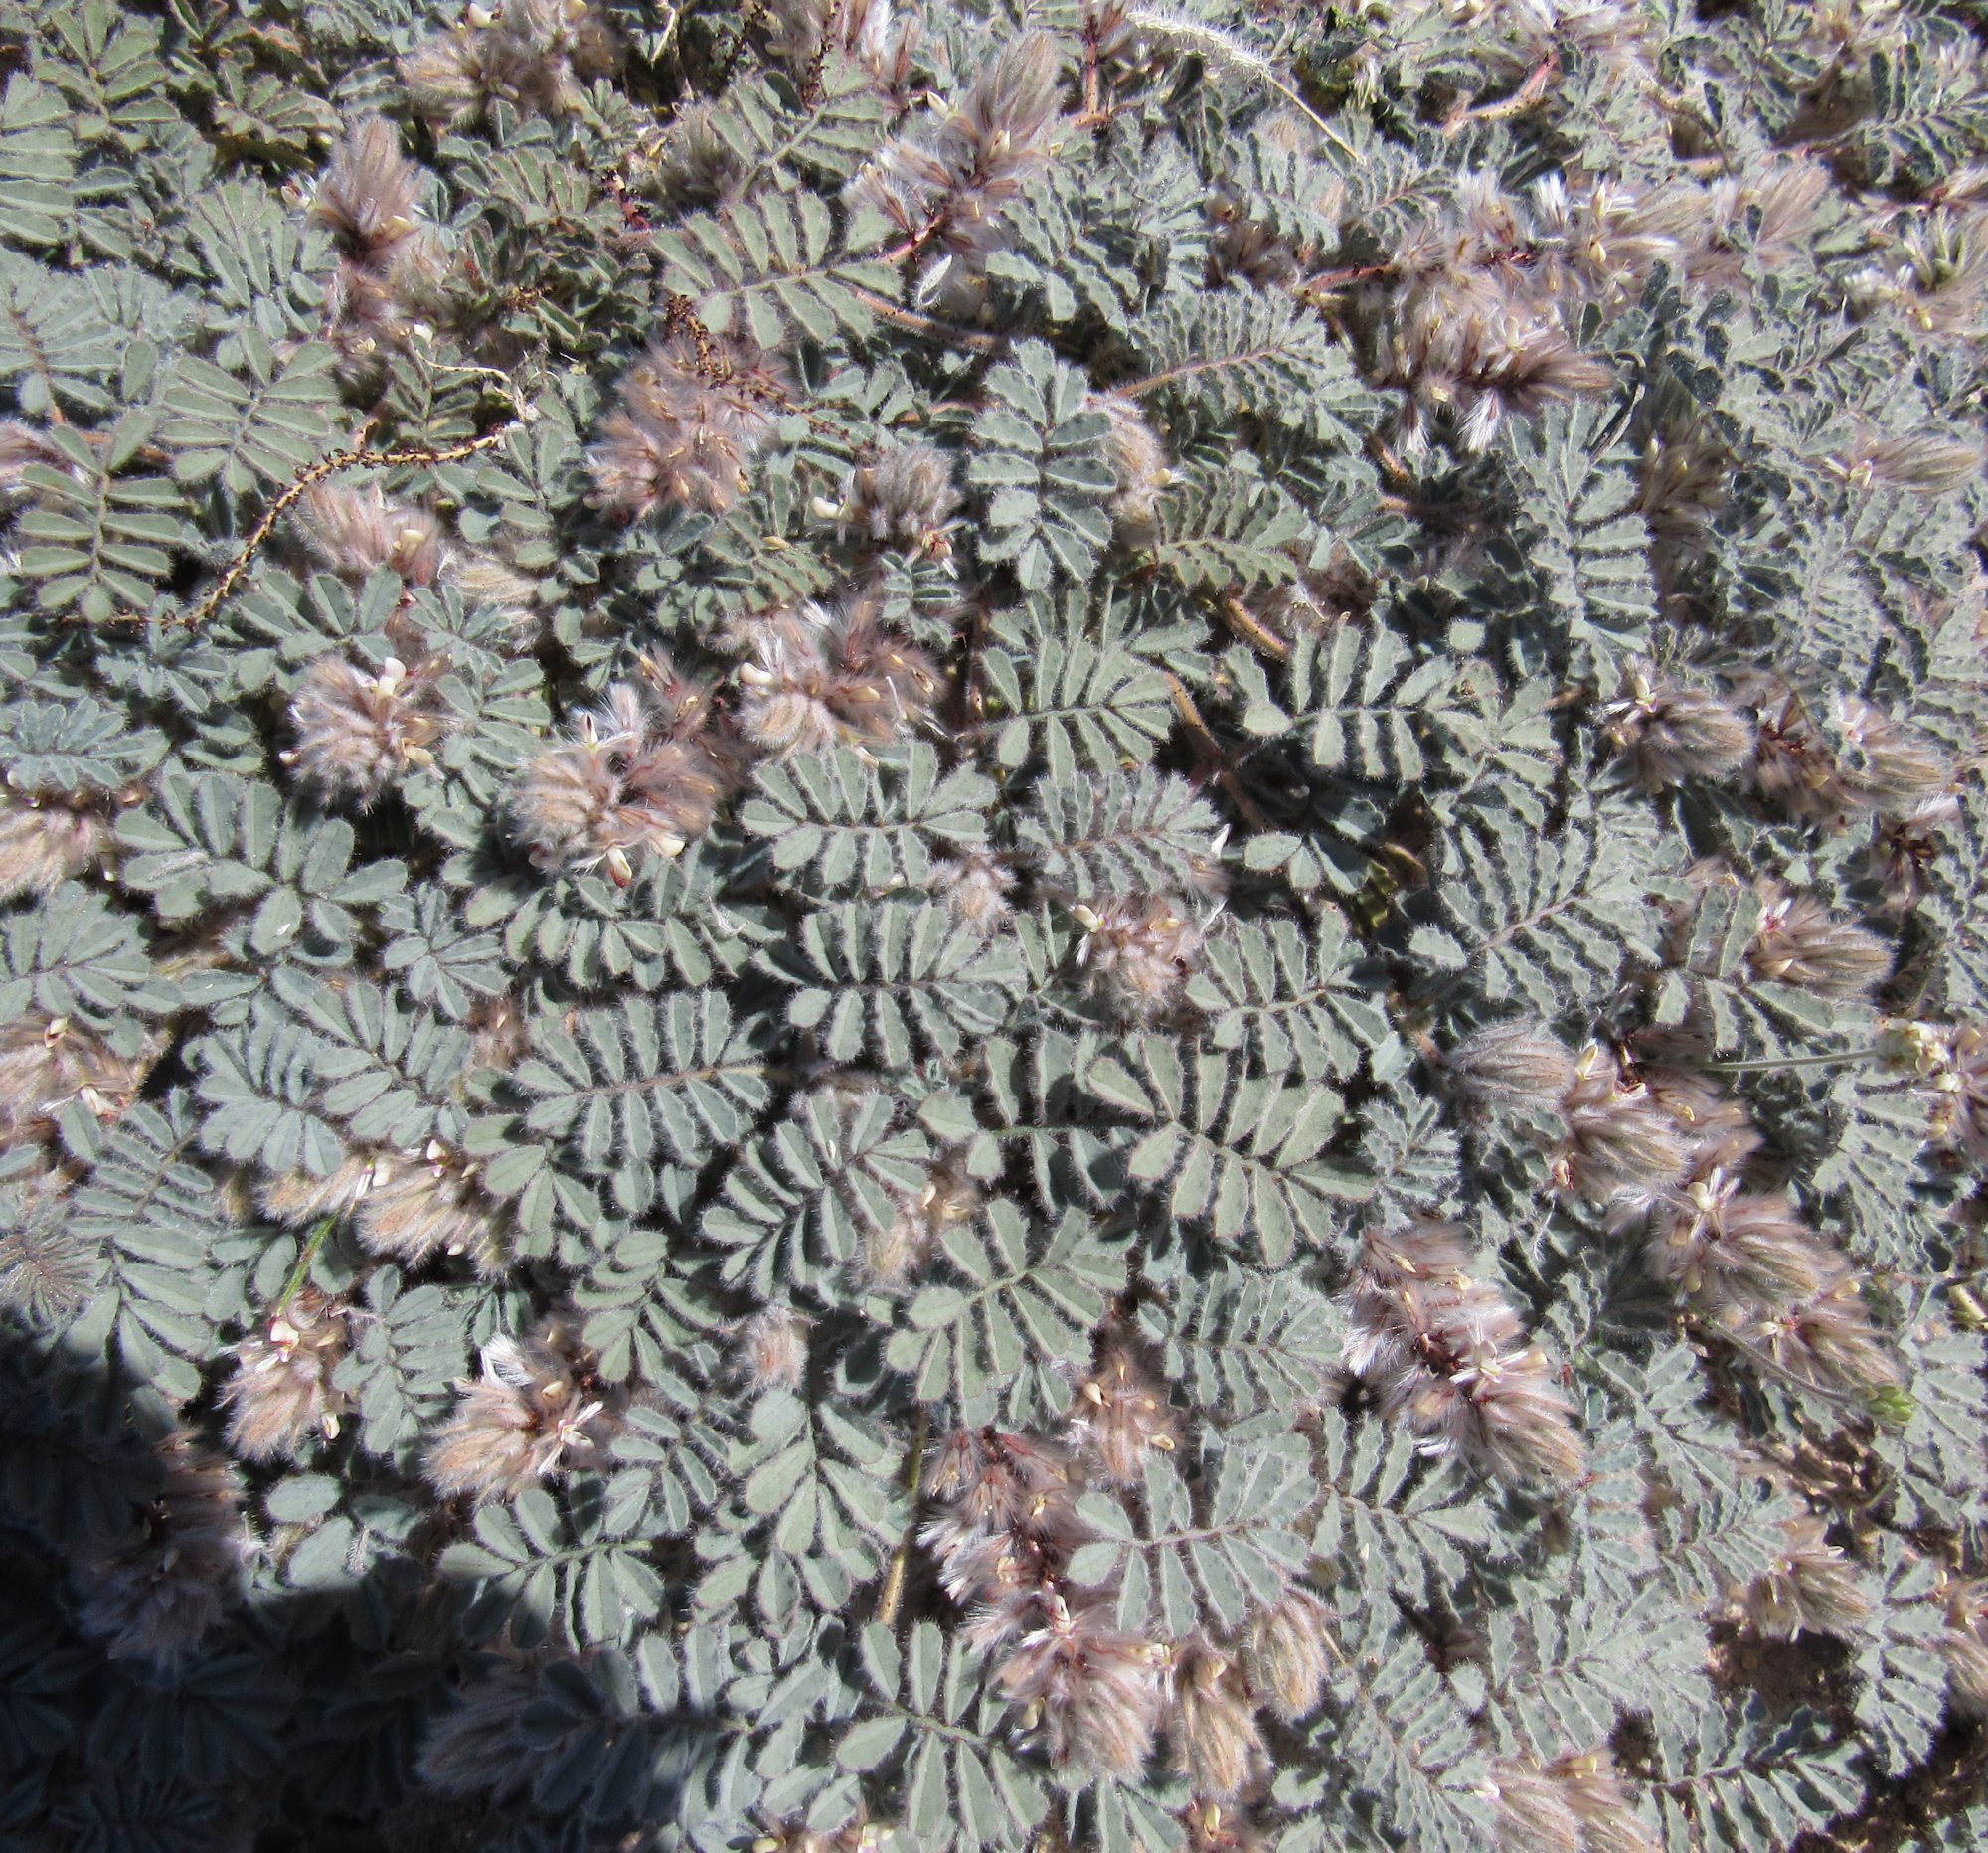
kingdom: Plantae
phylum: Tracheophyta
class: Magnoliopsida
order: Fabales
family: Fabaceae
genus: Dalea
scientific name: Dalea mollissima
